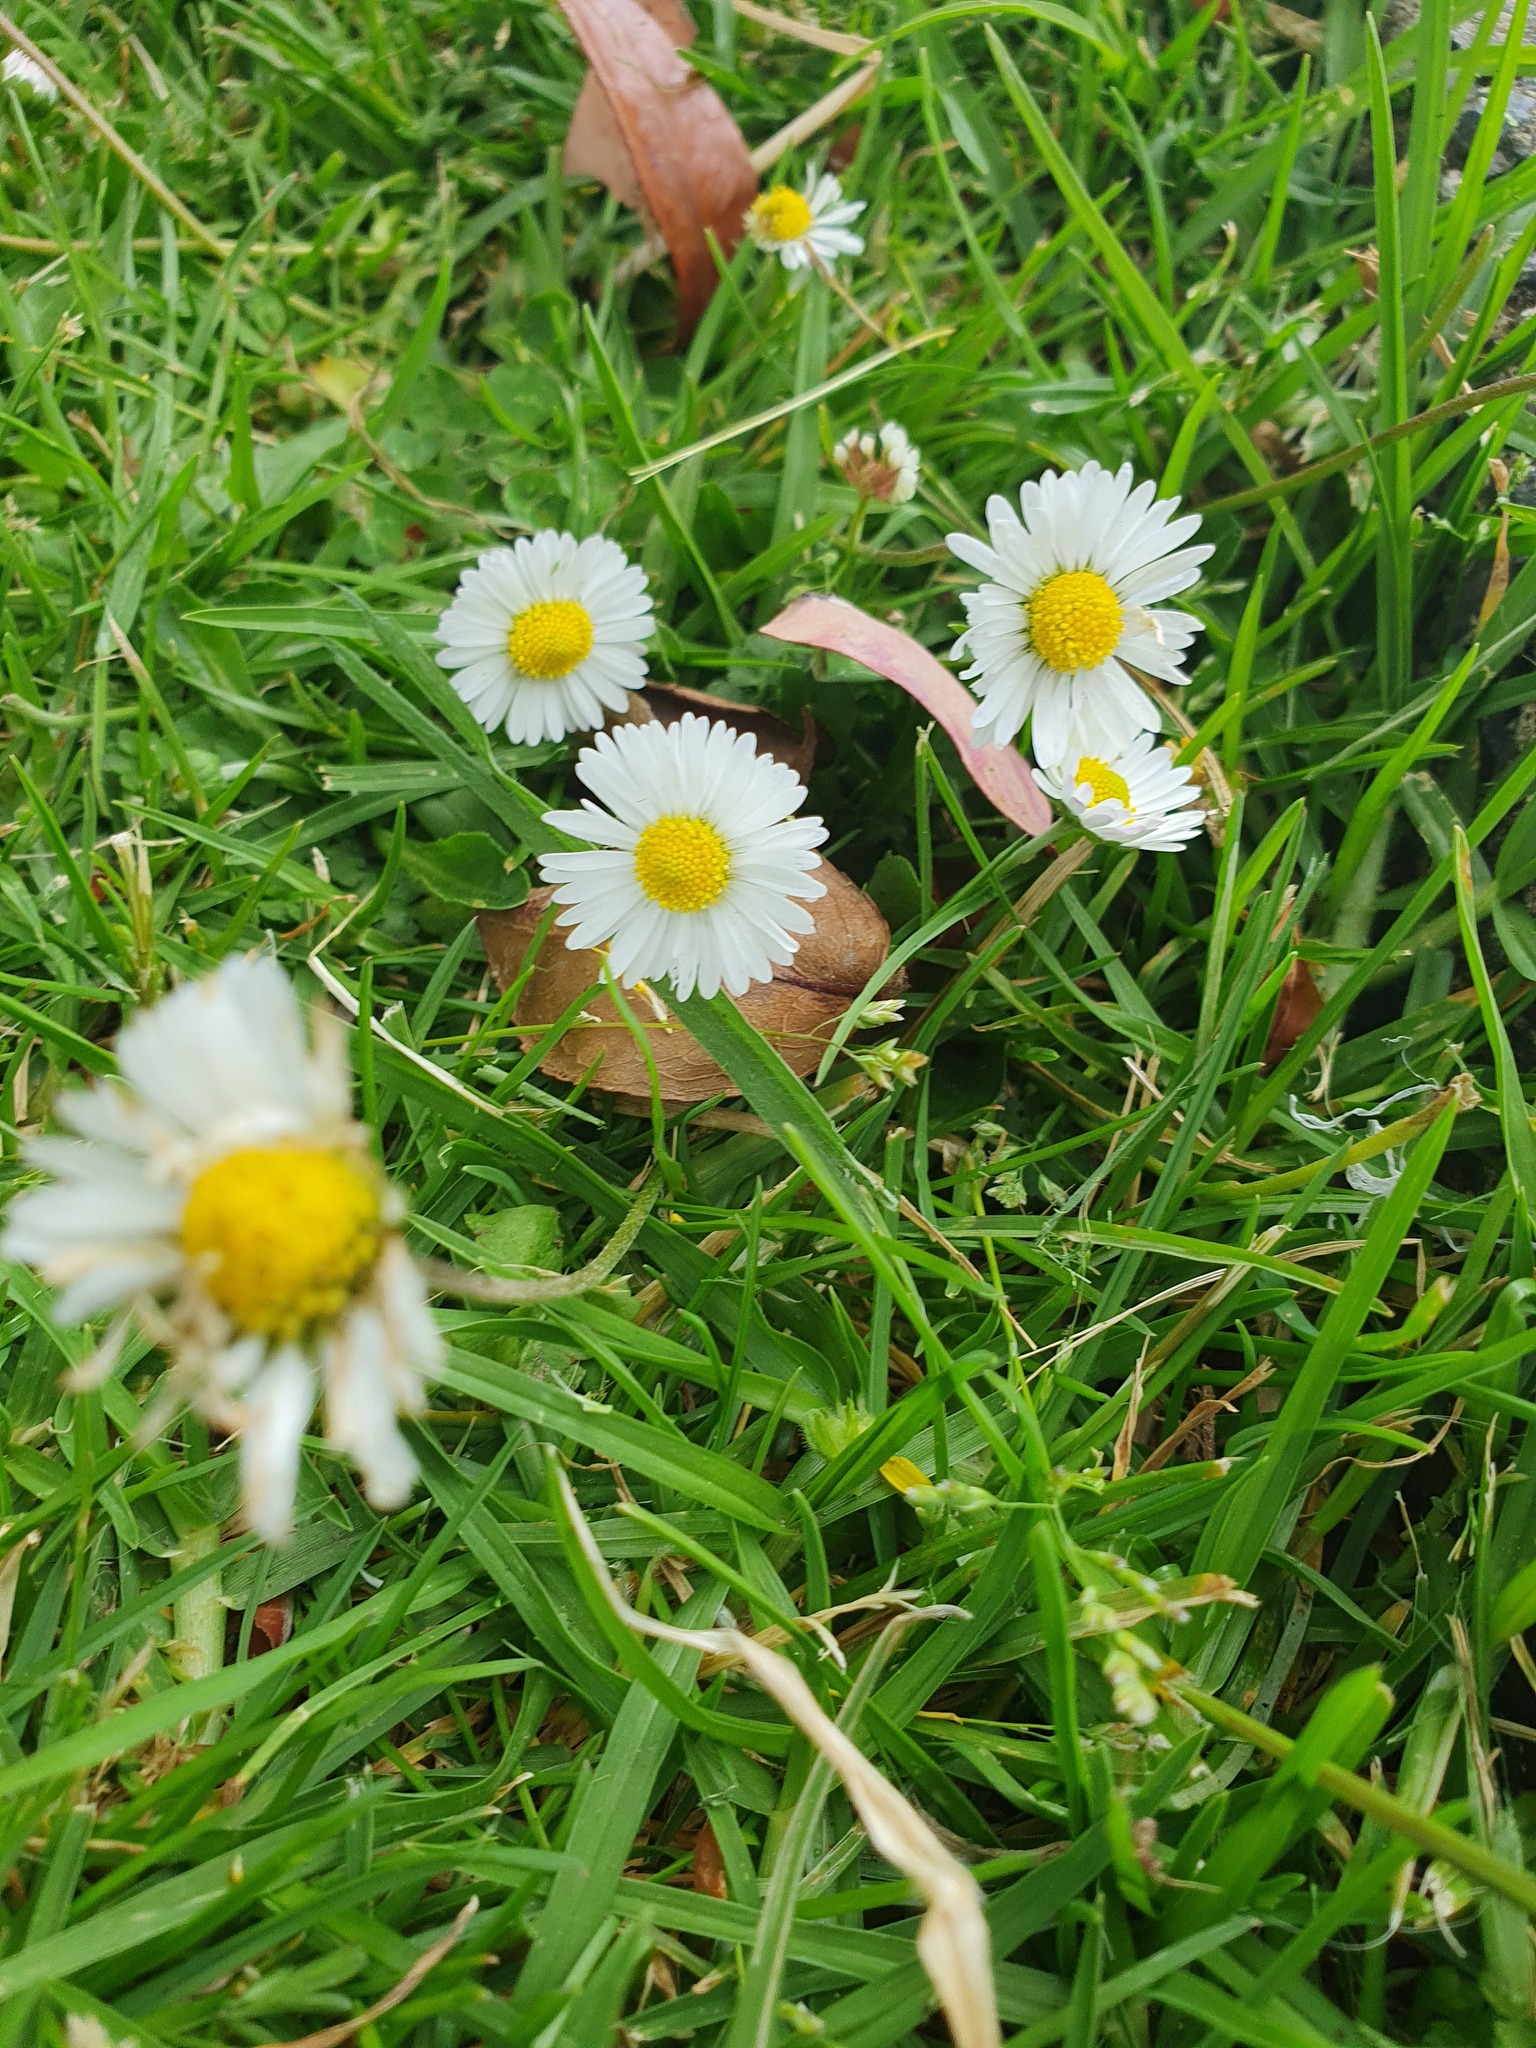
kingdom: Plantae
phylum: Tracheophyta
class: Magnoliopsida
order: Asterales
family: Asteraceae
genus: Bellis
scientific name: Bellis perennis
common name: Lawndaisy
